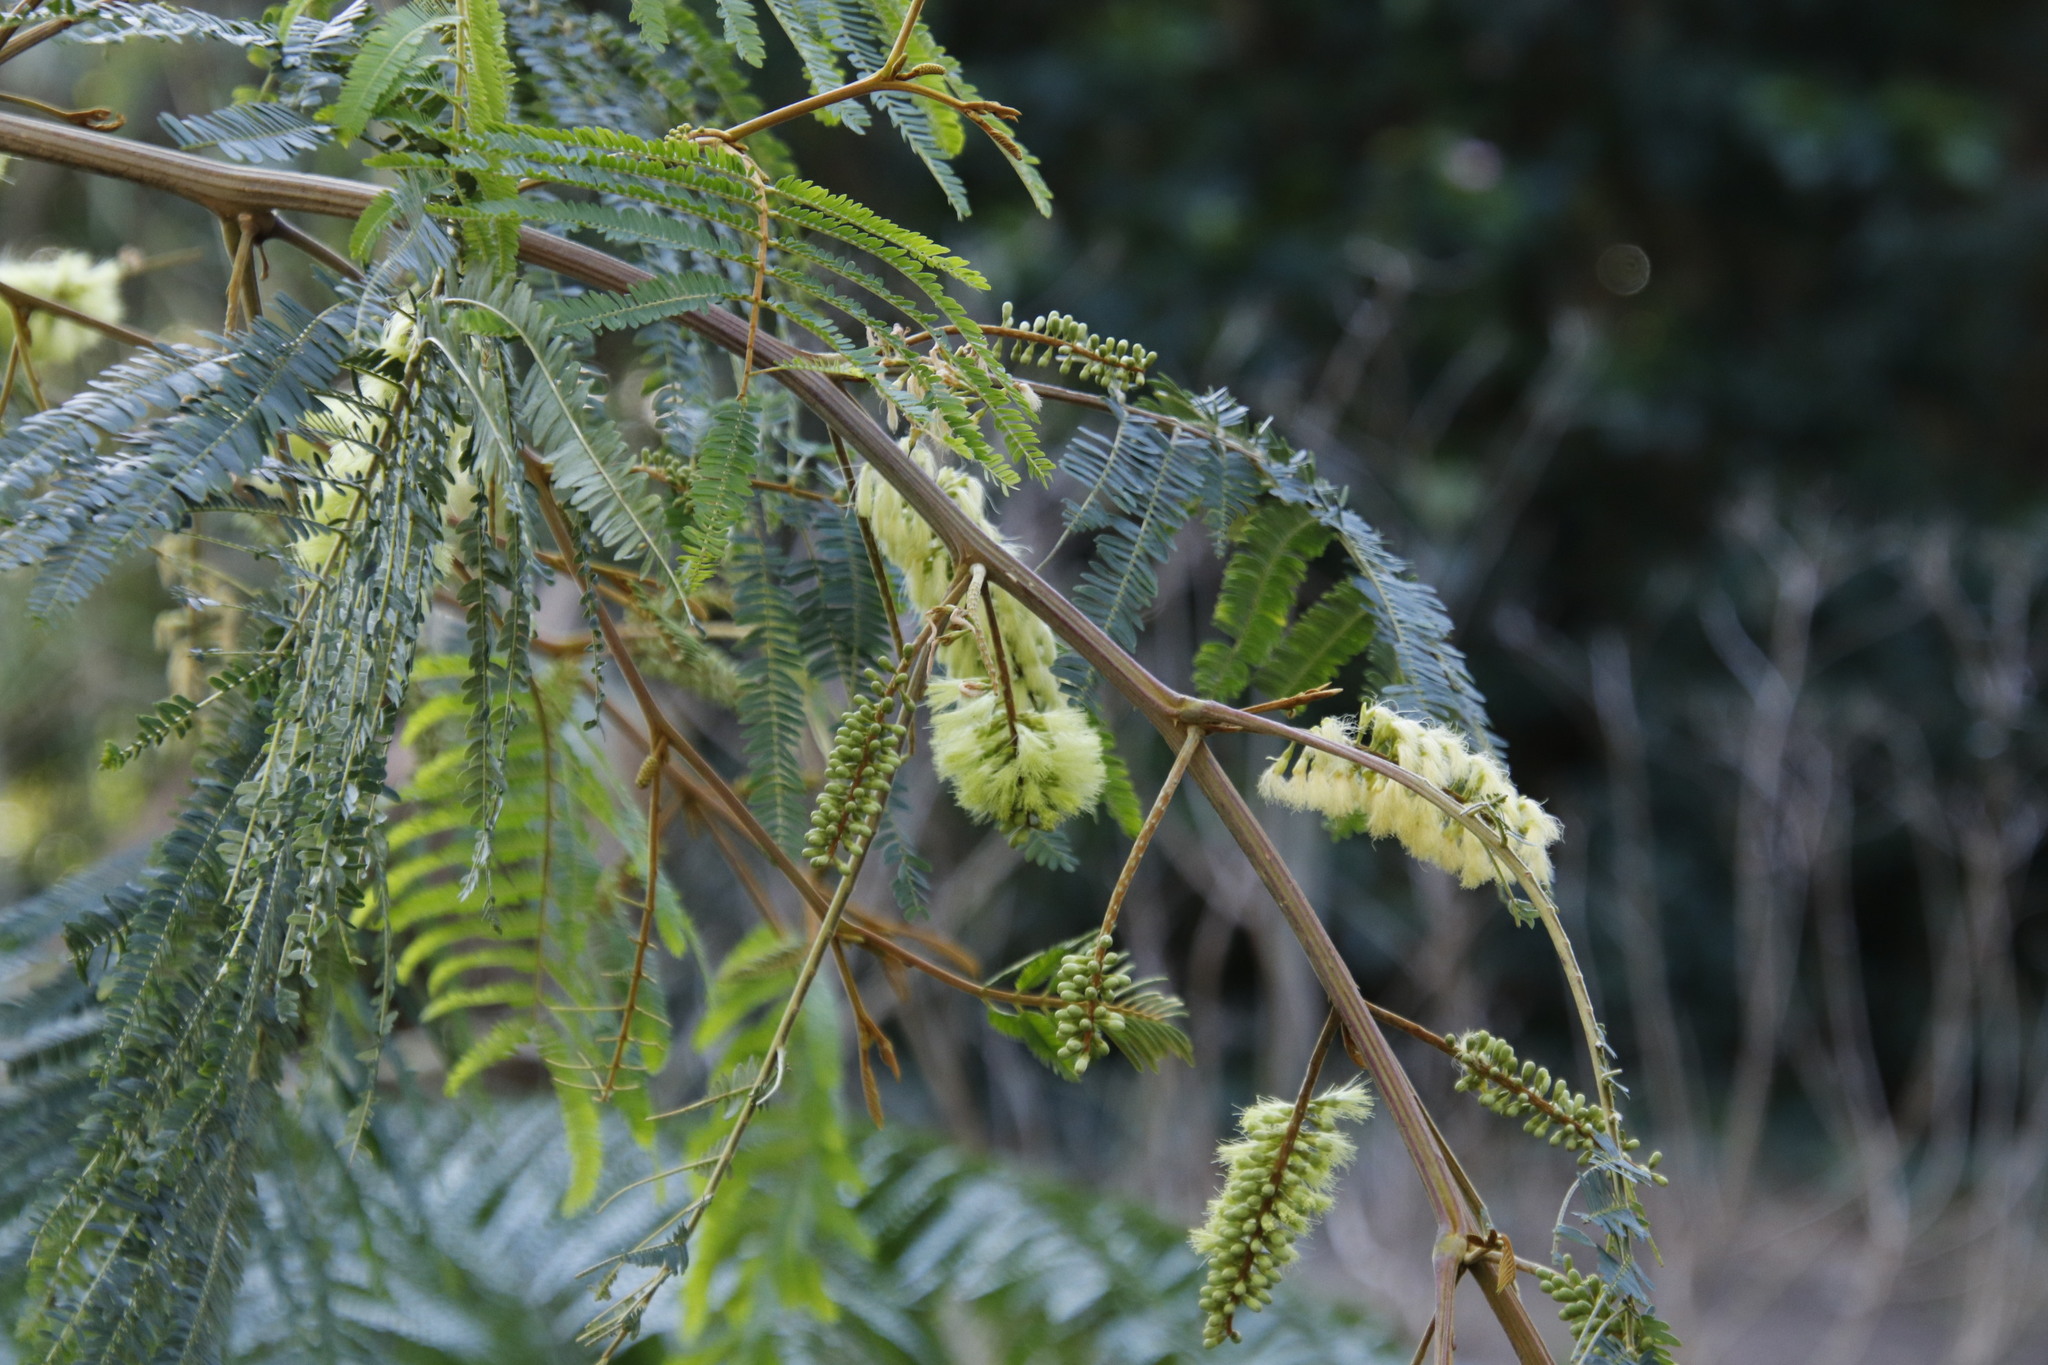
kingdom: Plantae
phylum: Tracheophyta
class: Magnoliopsida
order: Fabales
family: Fabaceae
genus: Paraserianthes
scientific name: Paraserianthes lophantha
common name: Plume albizia
